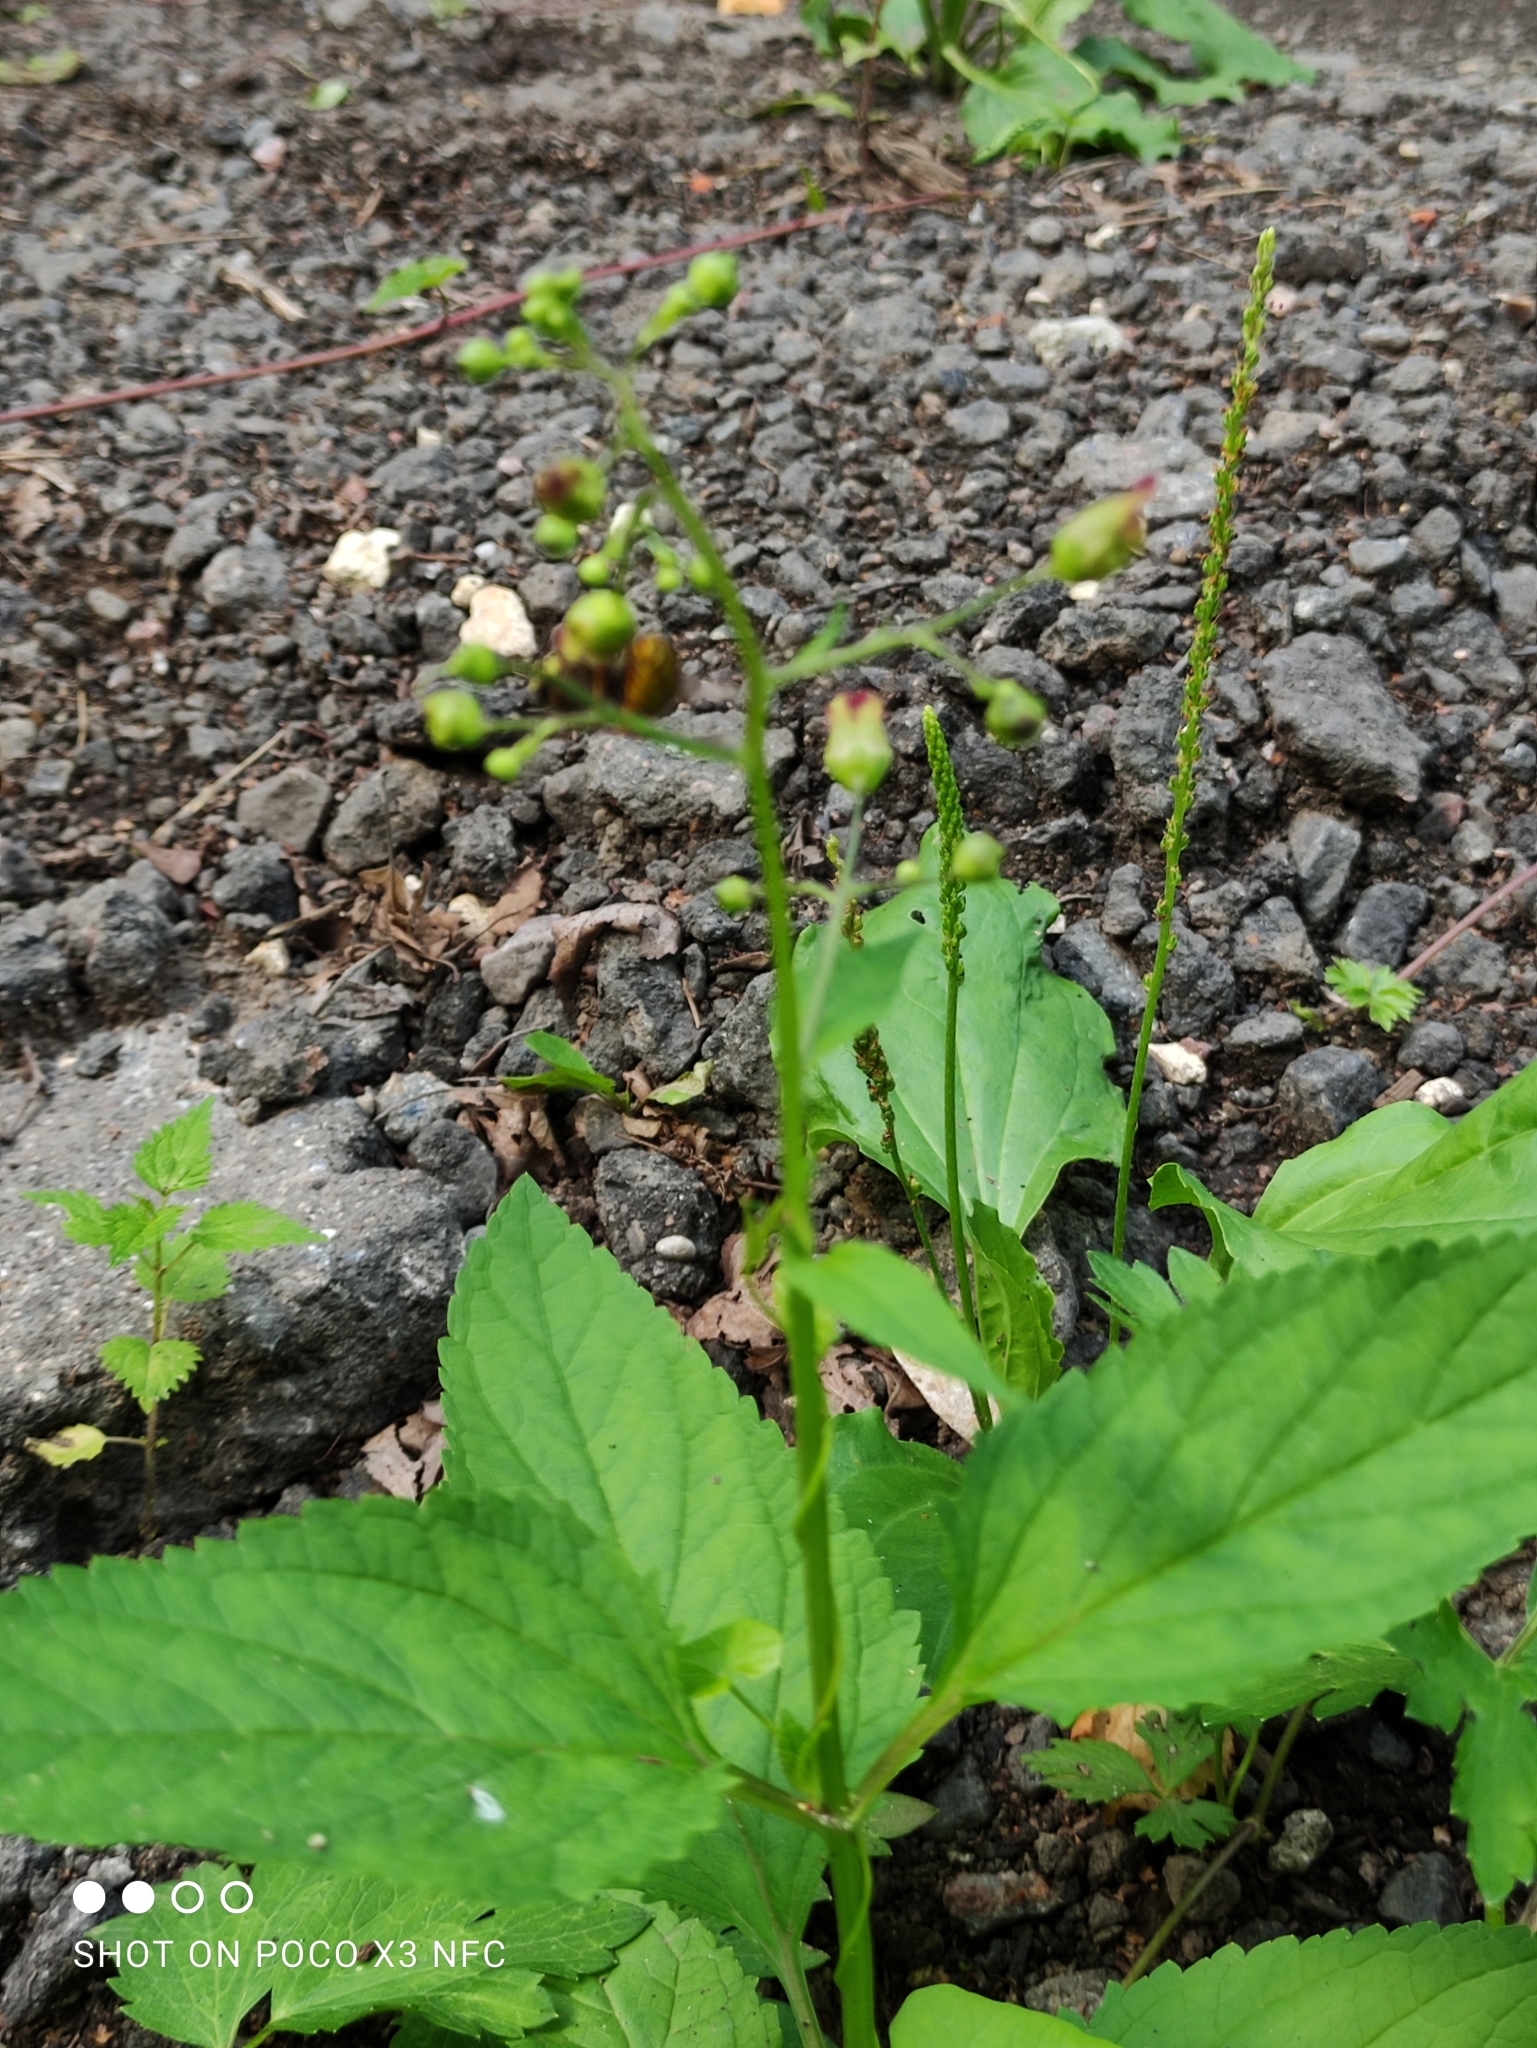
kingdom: Plantae
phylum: Tracheophyta
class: Magnoliopsida
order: Lamiales
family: Scrophulariaceae
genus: Scrophularia
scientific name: Scrophularia nodosa
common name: Common figwort
